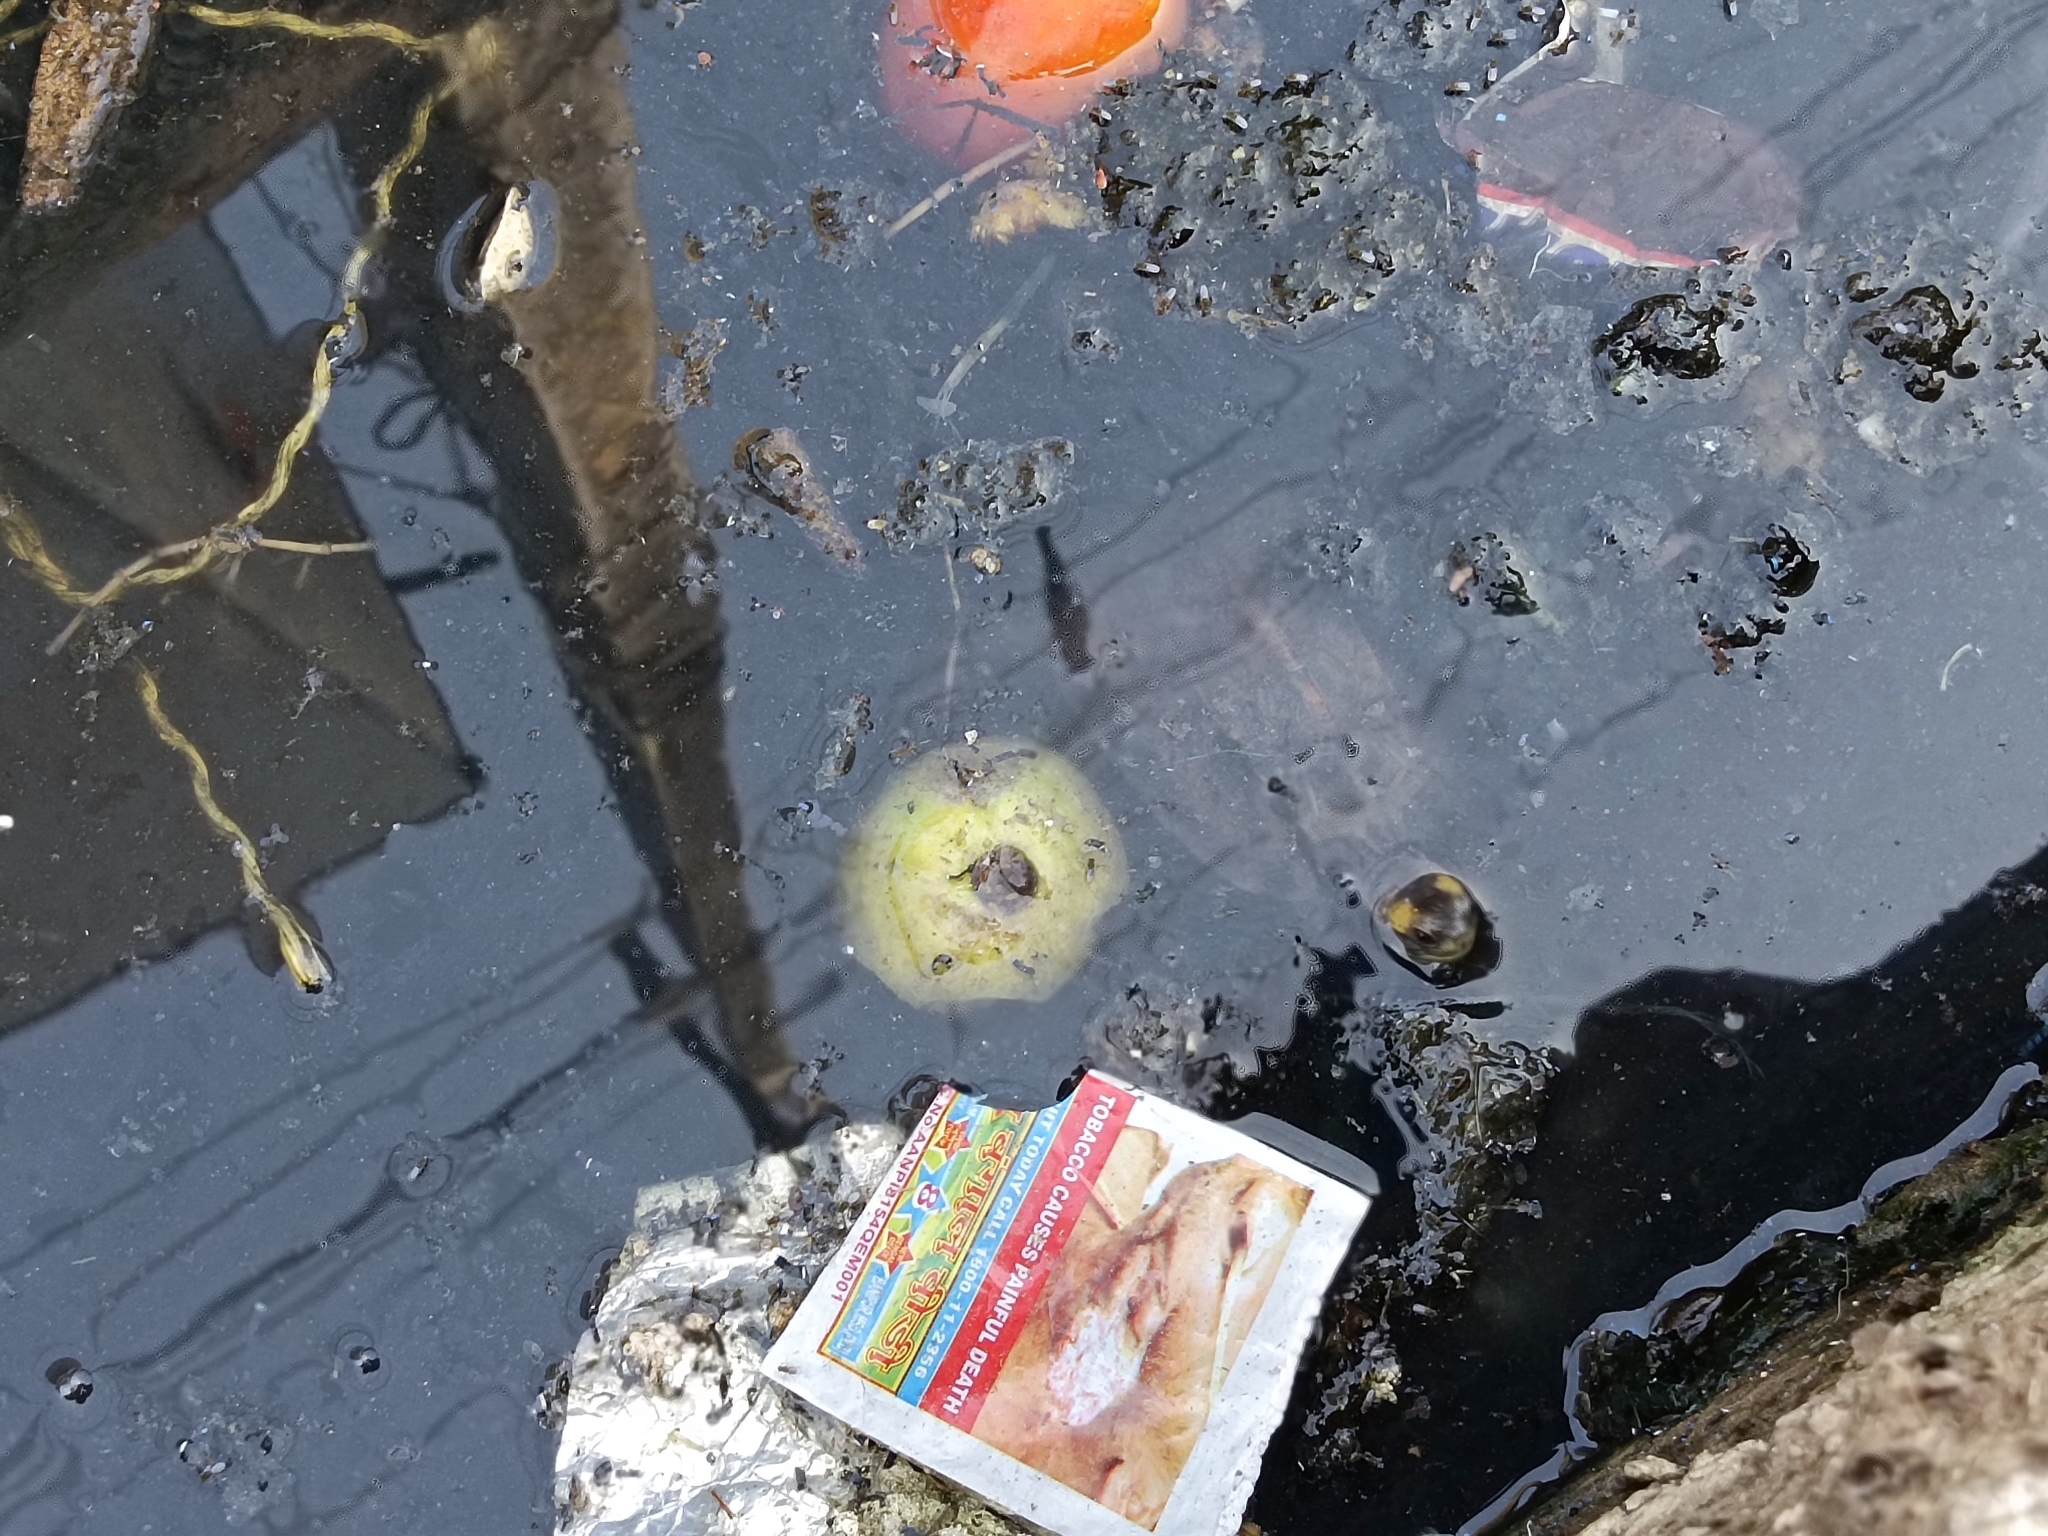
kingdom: Animalia
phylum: Chordata
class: Testudines
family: Geoemydidae
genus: Melanochelys
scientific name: Melanochelys trijuga
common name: Indian black turtle
